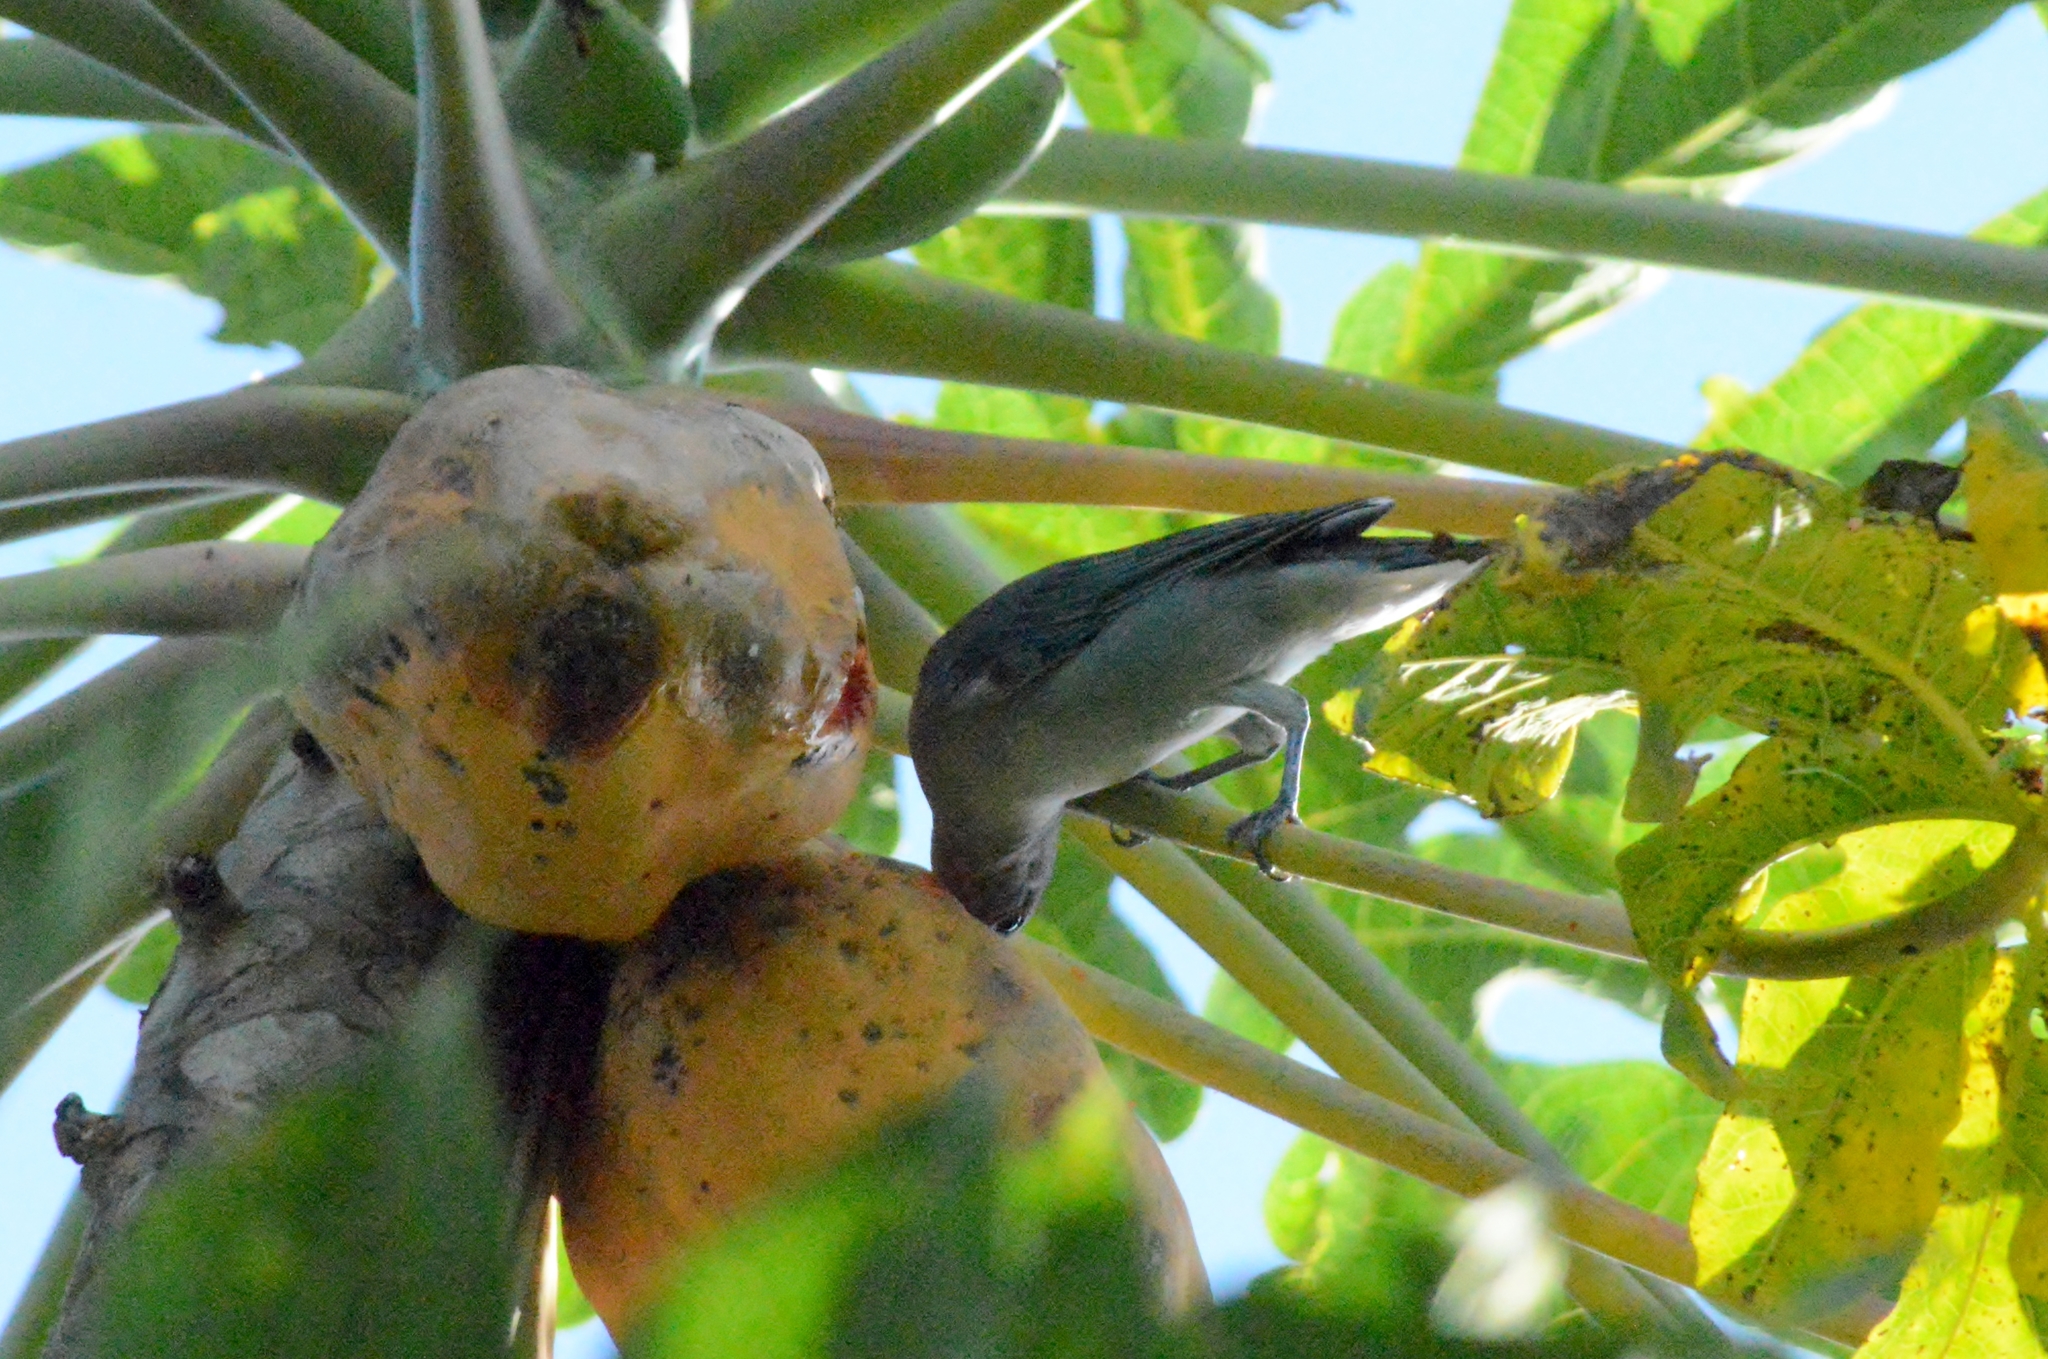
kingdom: Animalia
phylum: Chordata
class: Aves
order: Passeriformes
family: Thraupidae
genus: Thraupis
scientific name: Thraupis sayaca
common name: Sayaca tanager
